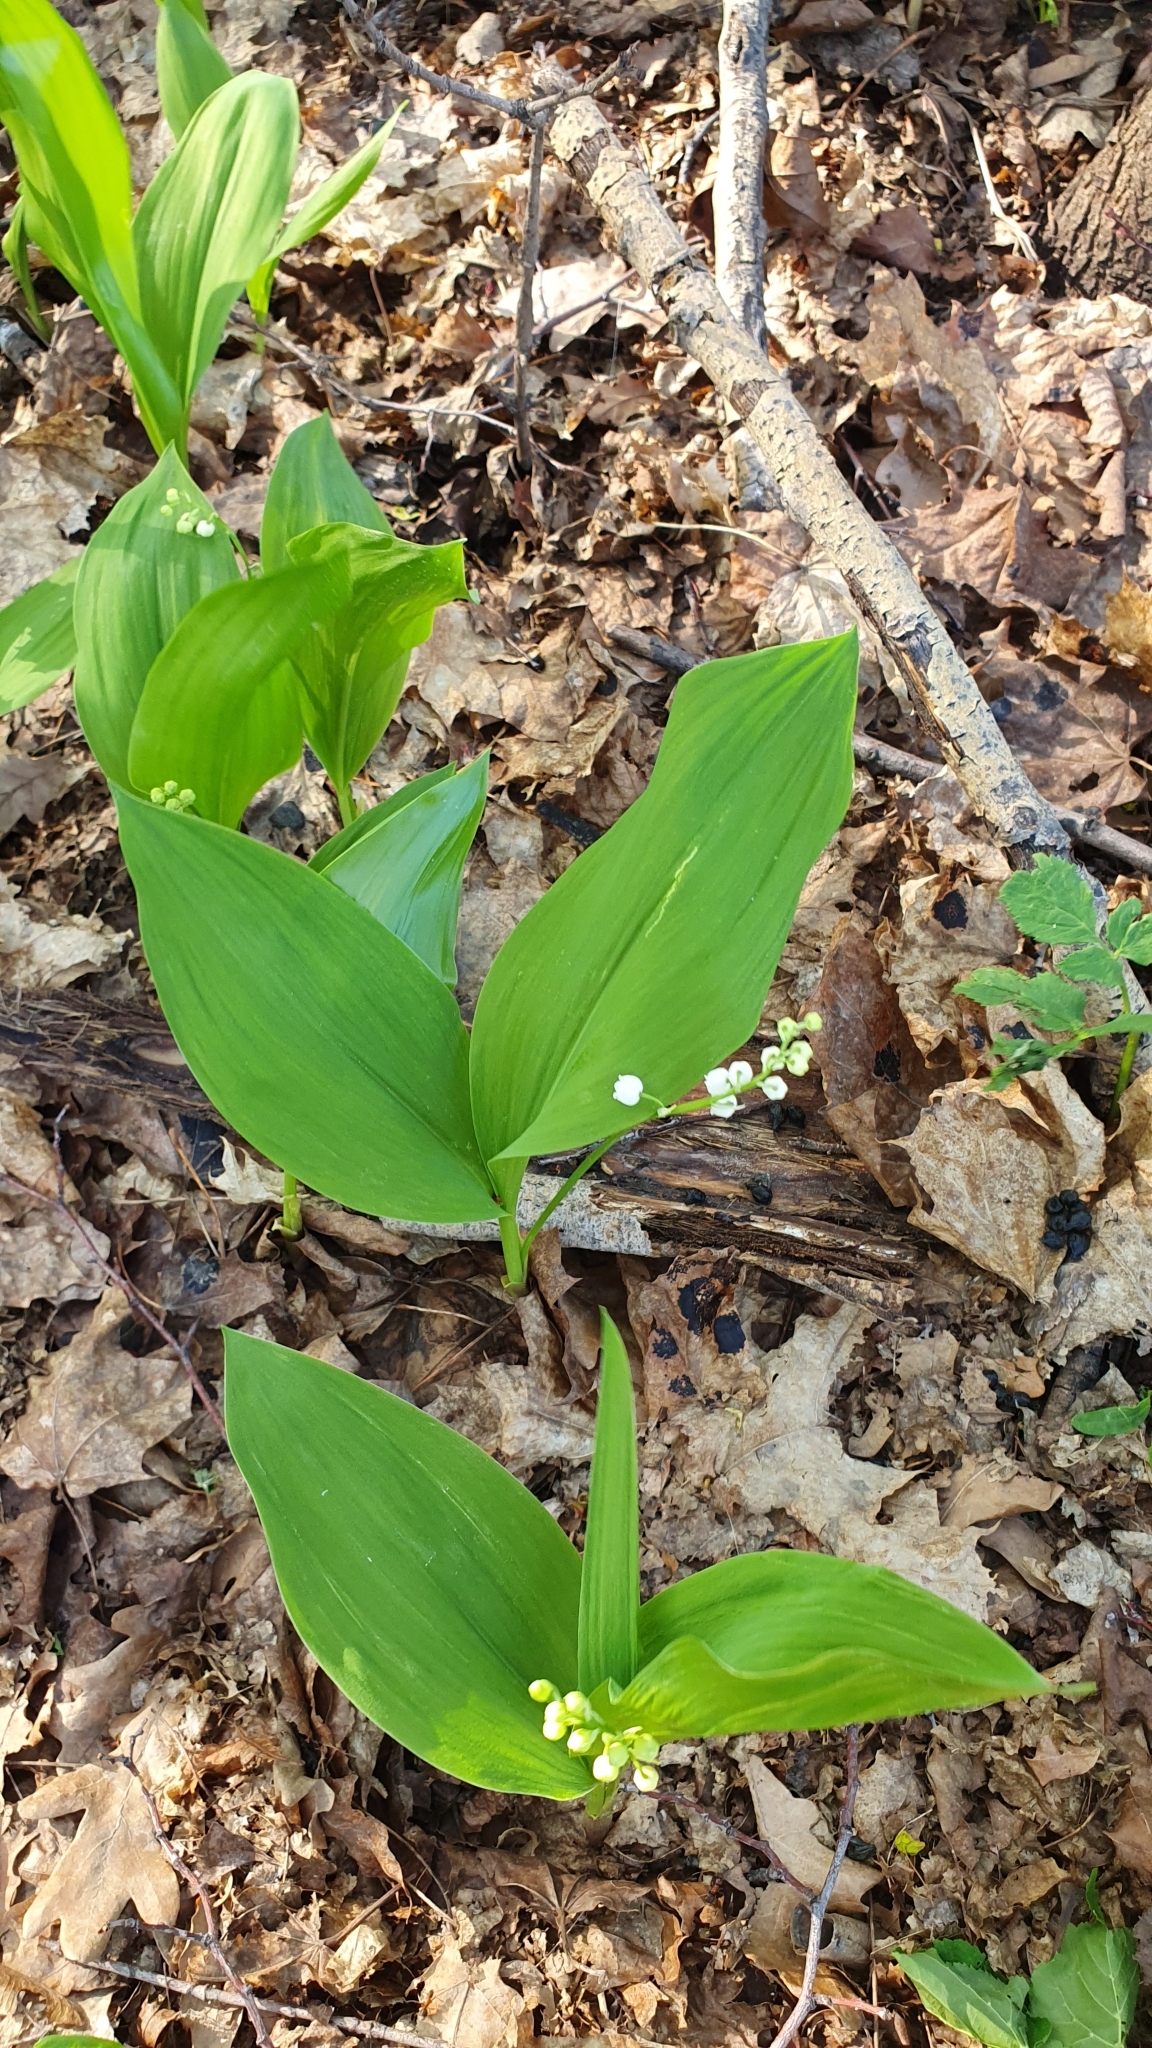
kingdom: Plantae
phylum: Tracheophyta
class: Liliopsida
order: Asparagales
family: Asparagaceae
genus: Convallaria
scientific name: Convallaria majalis
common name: Lily-of-the-valley
